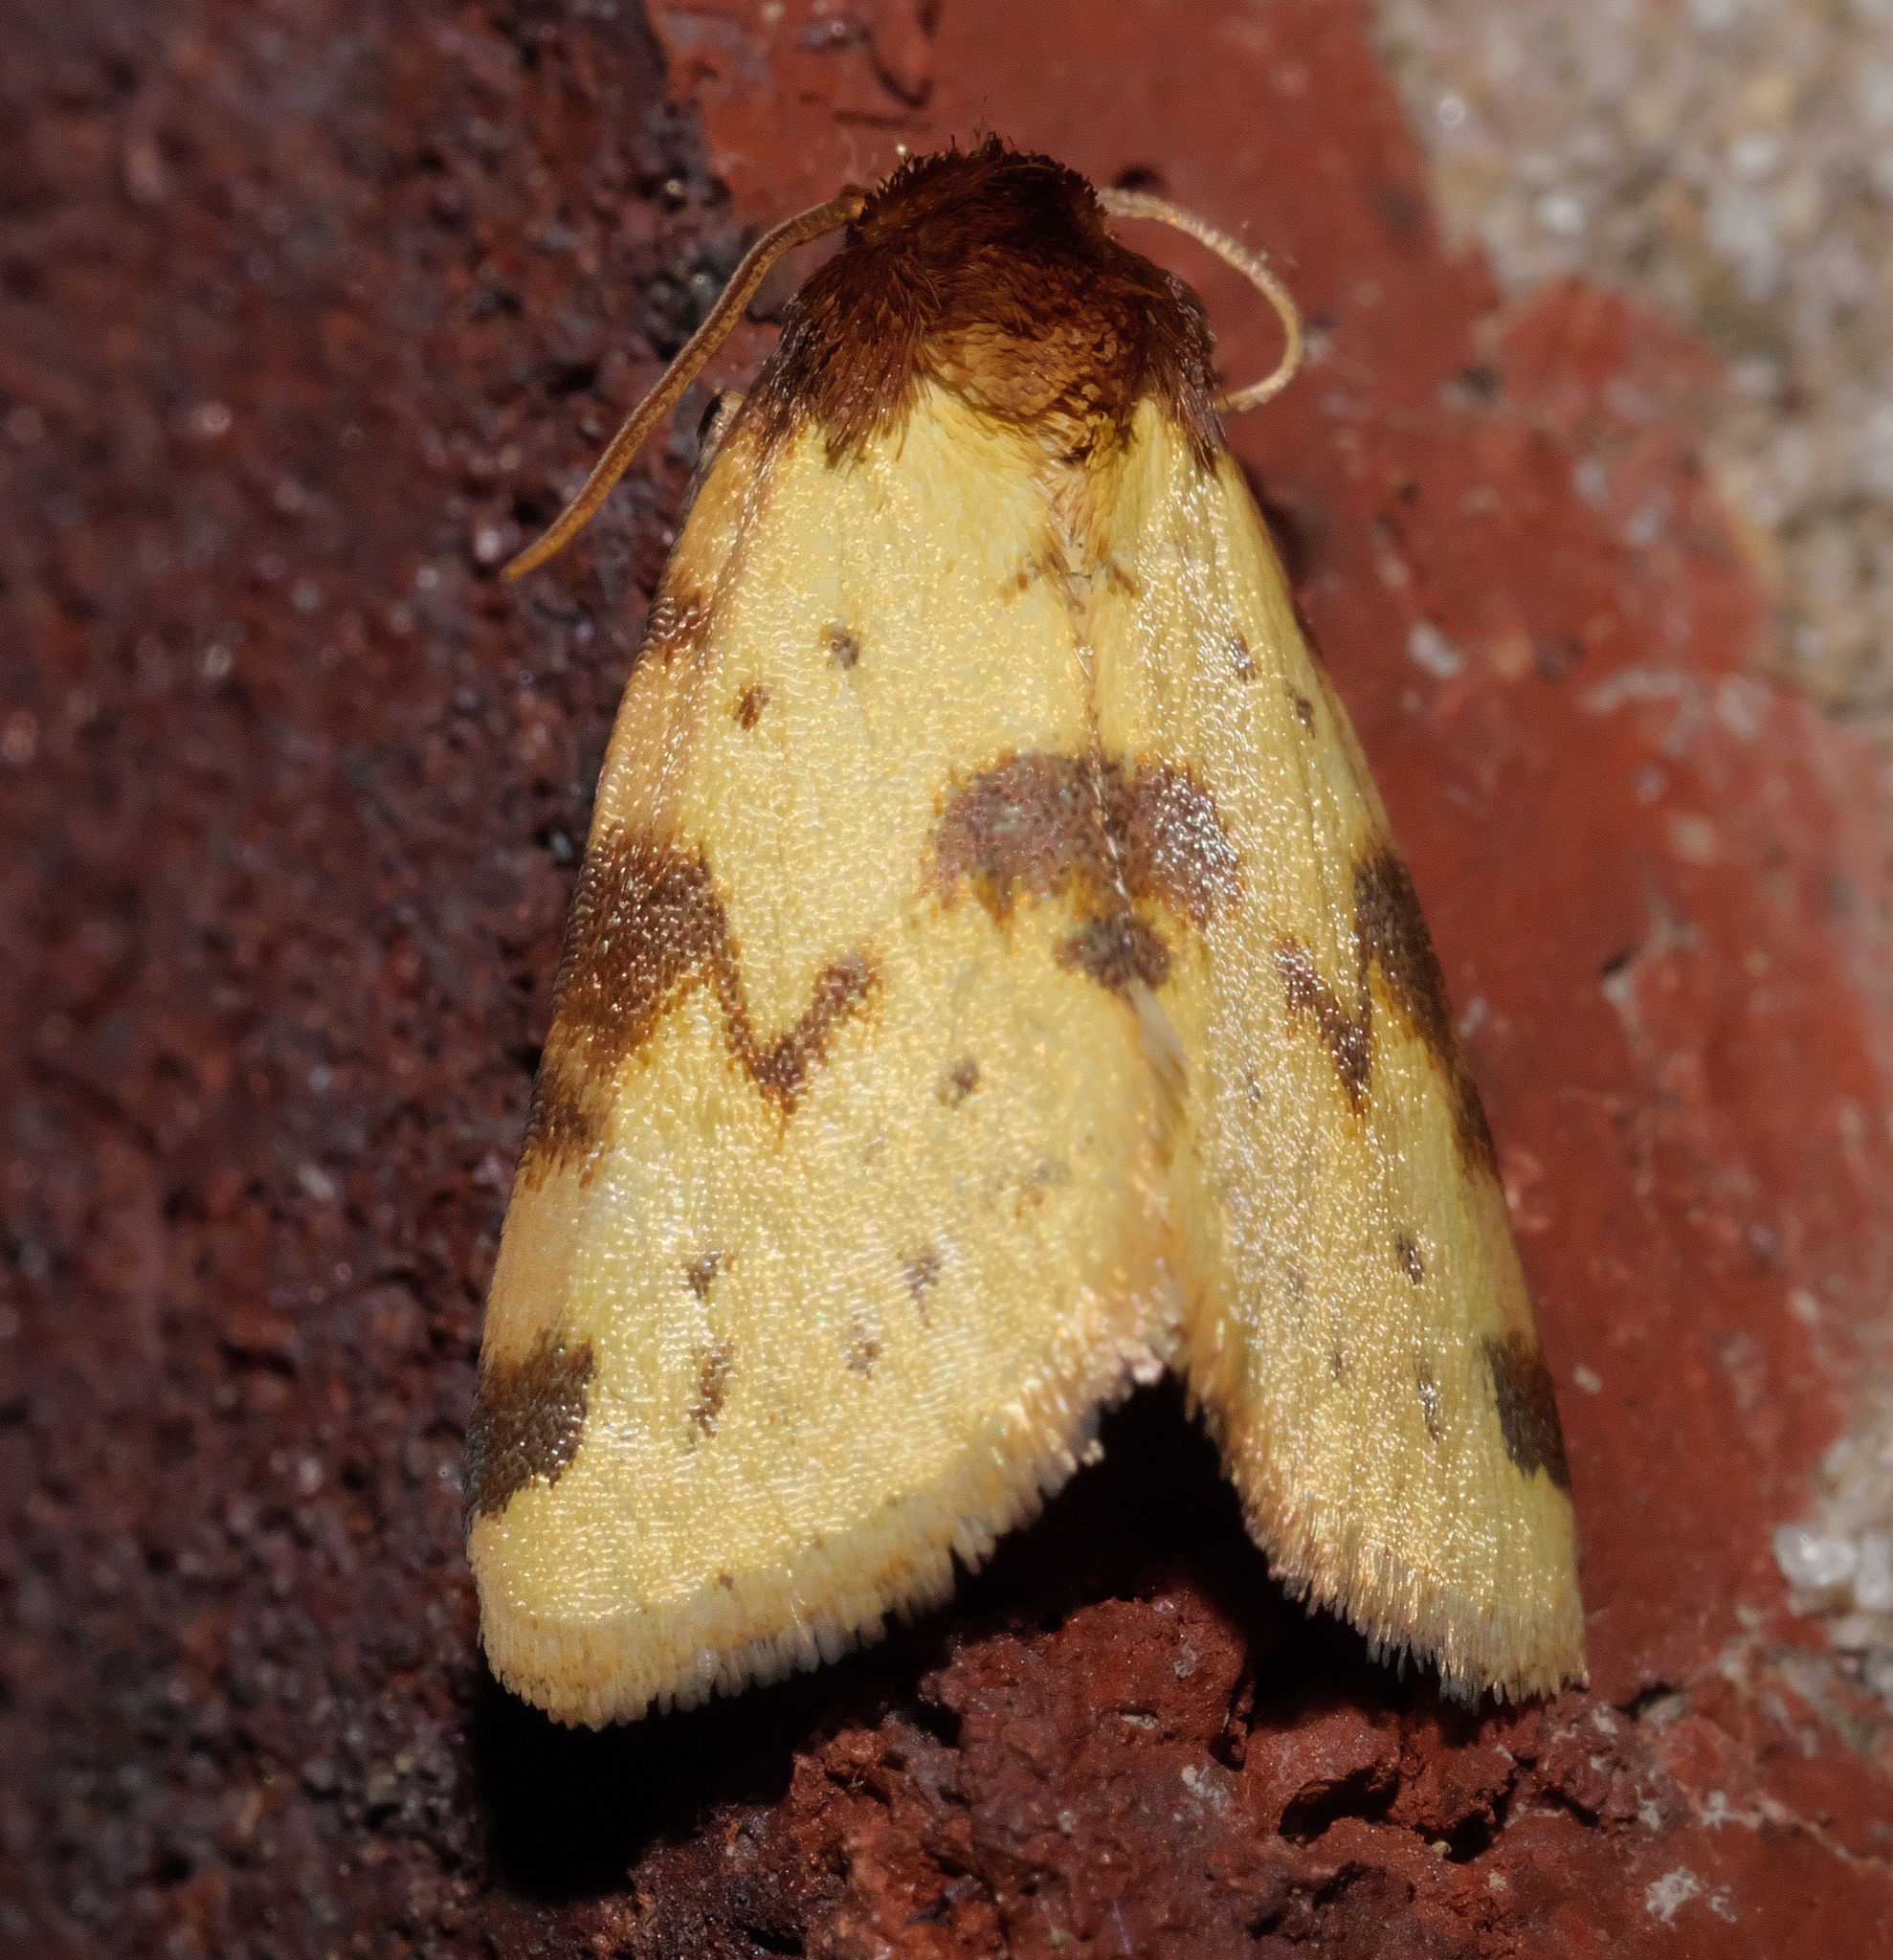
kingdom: Animalia
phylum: Arthropoda
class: Insecta
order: Lepidoptera
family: Noctuidae
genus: Azenia
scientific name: Azenia obtusa
